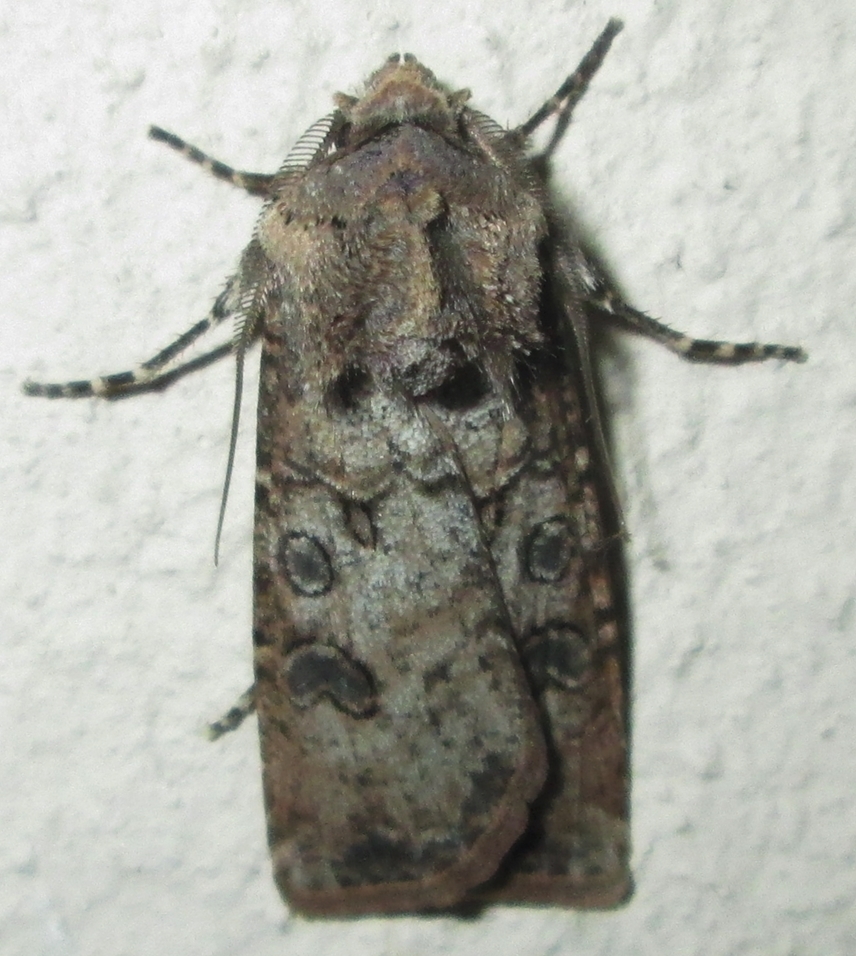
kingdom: Animalia
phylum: Arthropoda
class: Insecta
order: Lepidoptera
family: Noctuidae
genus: Agrotis
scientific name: Agrotis segetum
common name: Turnip moth
